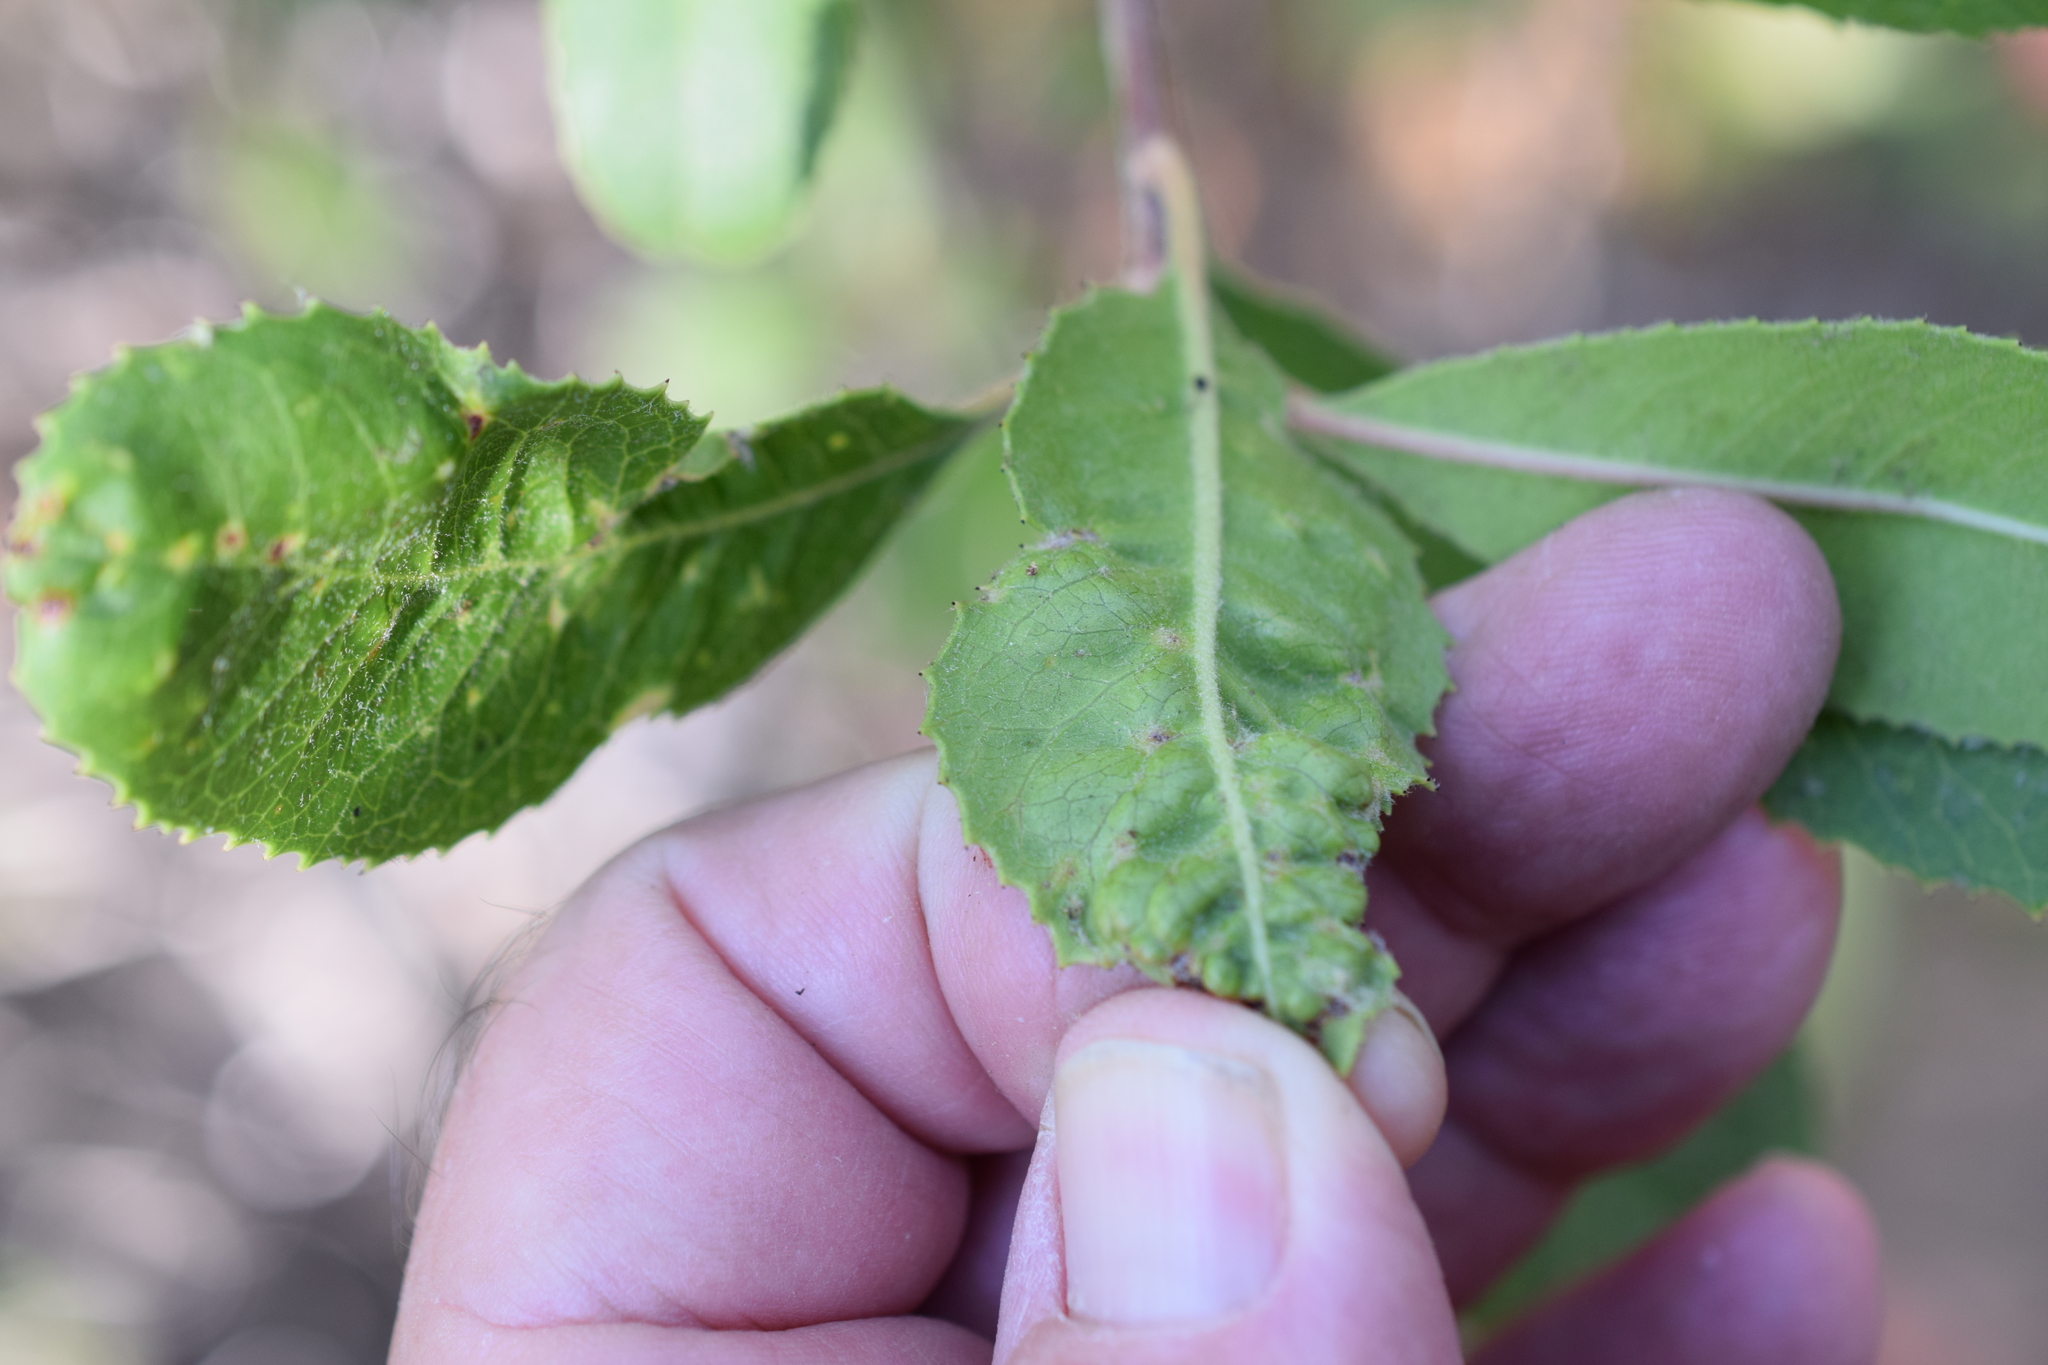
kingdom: Plantae
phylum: Tracheophyta
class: Magnoliopsida
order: Rosales
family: Rosaceae
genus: Heteromeles
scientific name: Heteromeles arbutifolia
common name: California-holly
